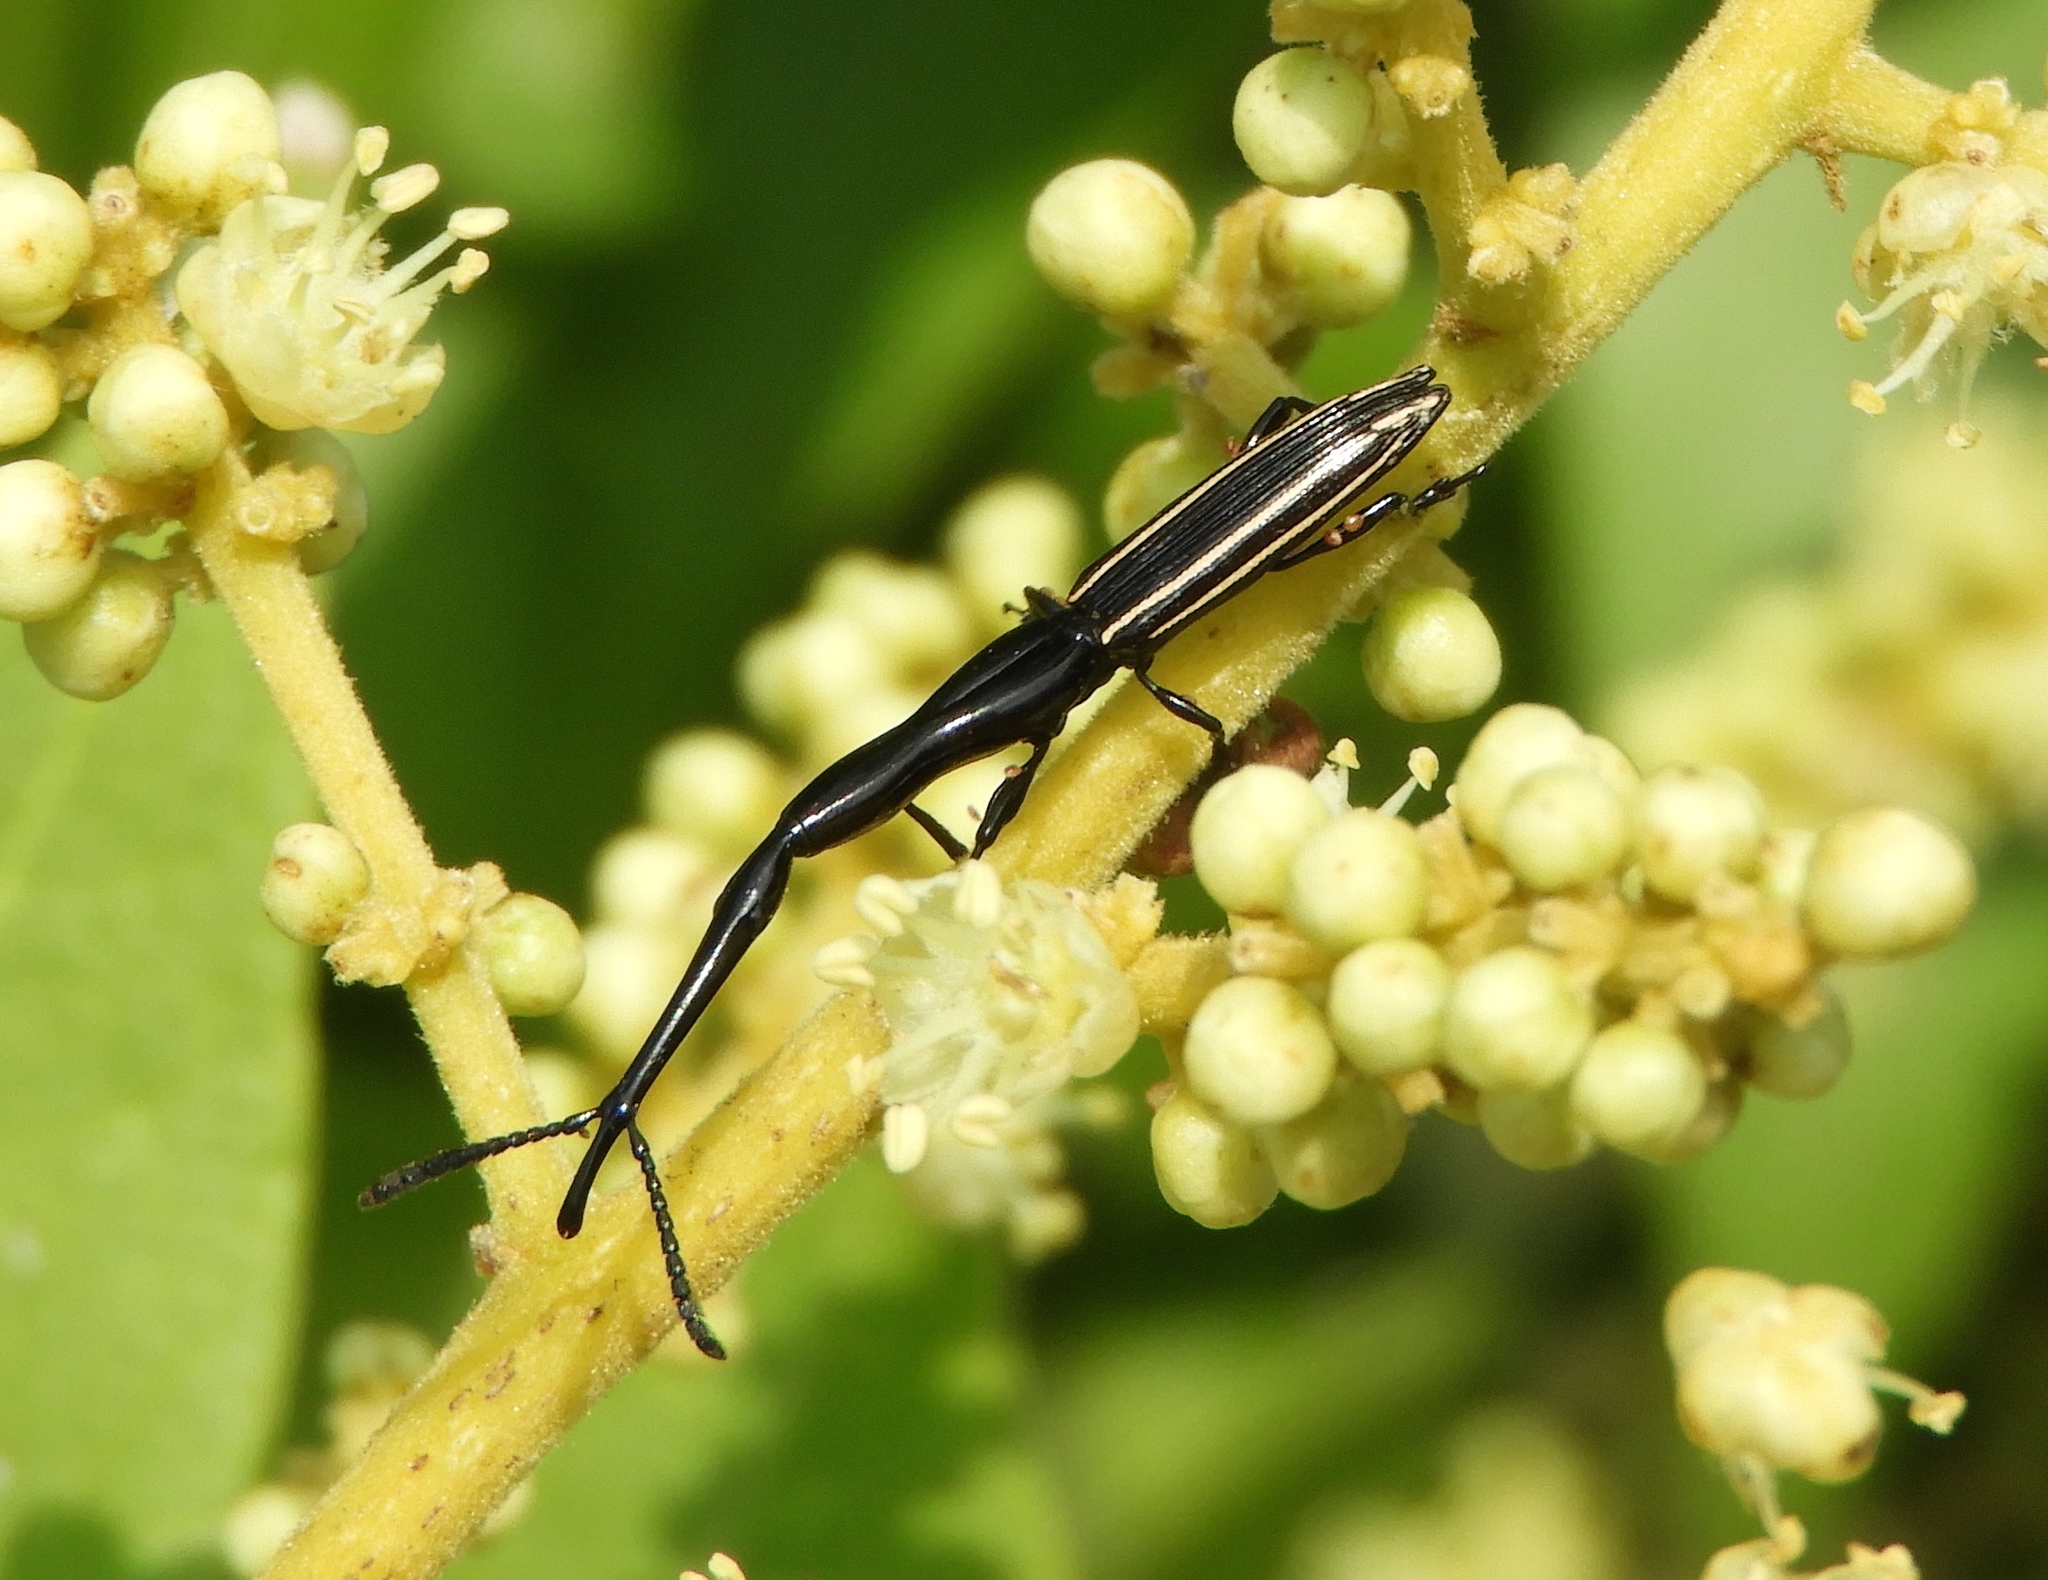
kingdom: Animalia
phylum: Arthropoda
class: Insecta
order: Coleoptera
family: Brentidae
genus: Brentus
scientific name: Brentus anchorago
